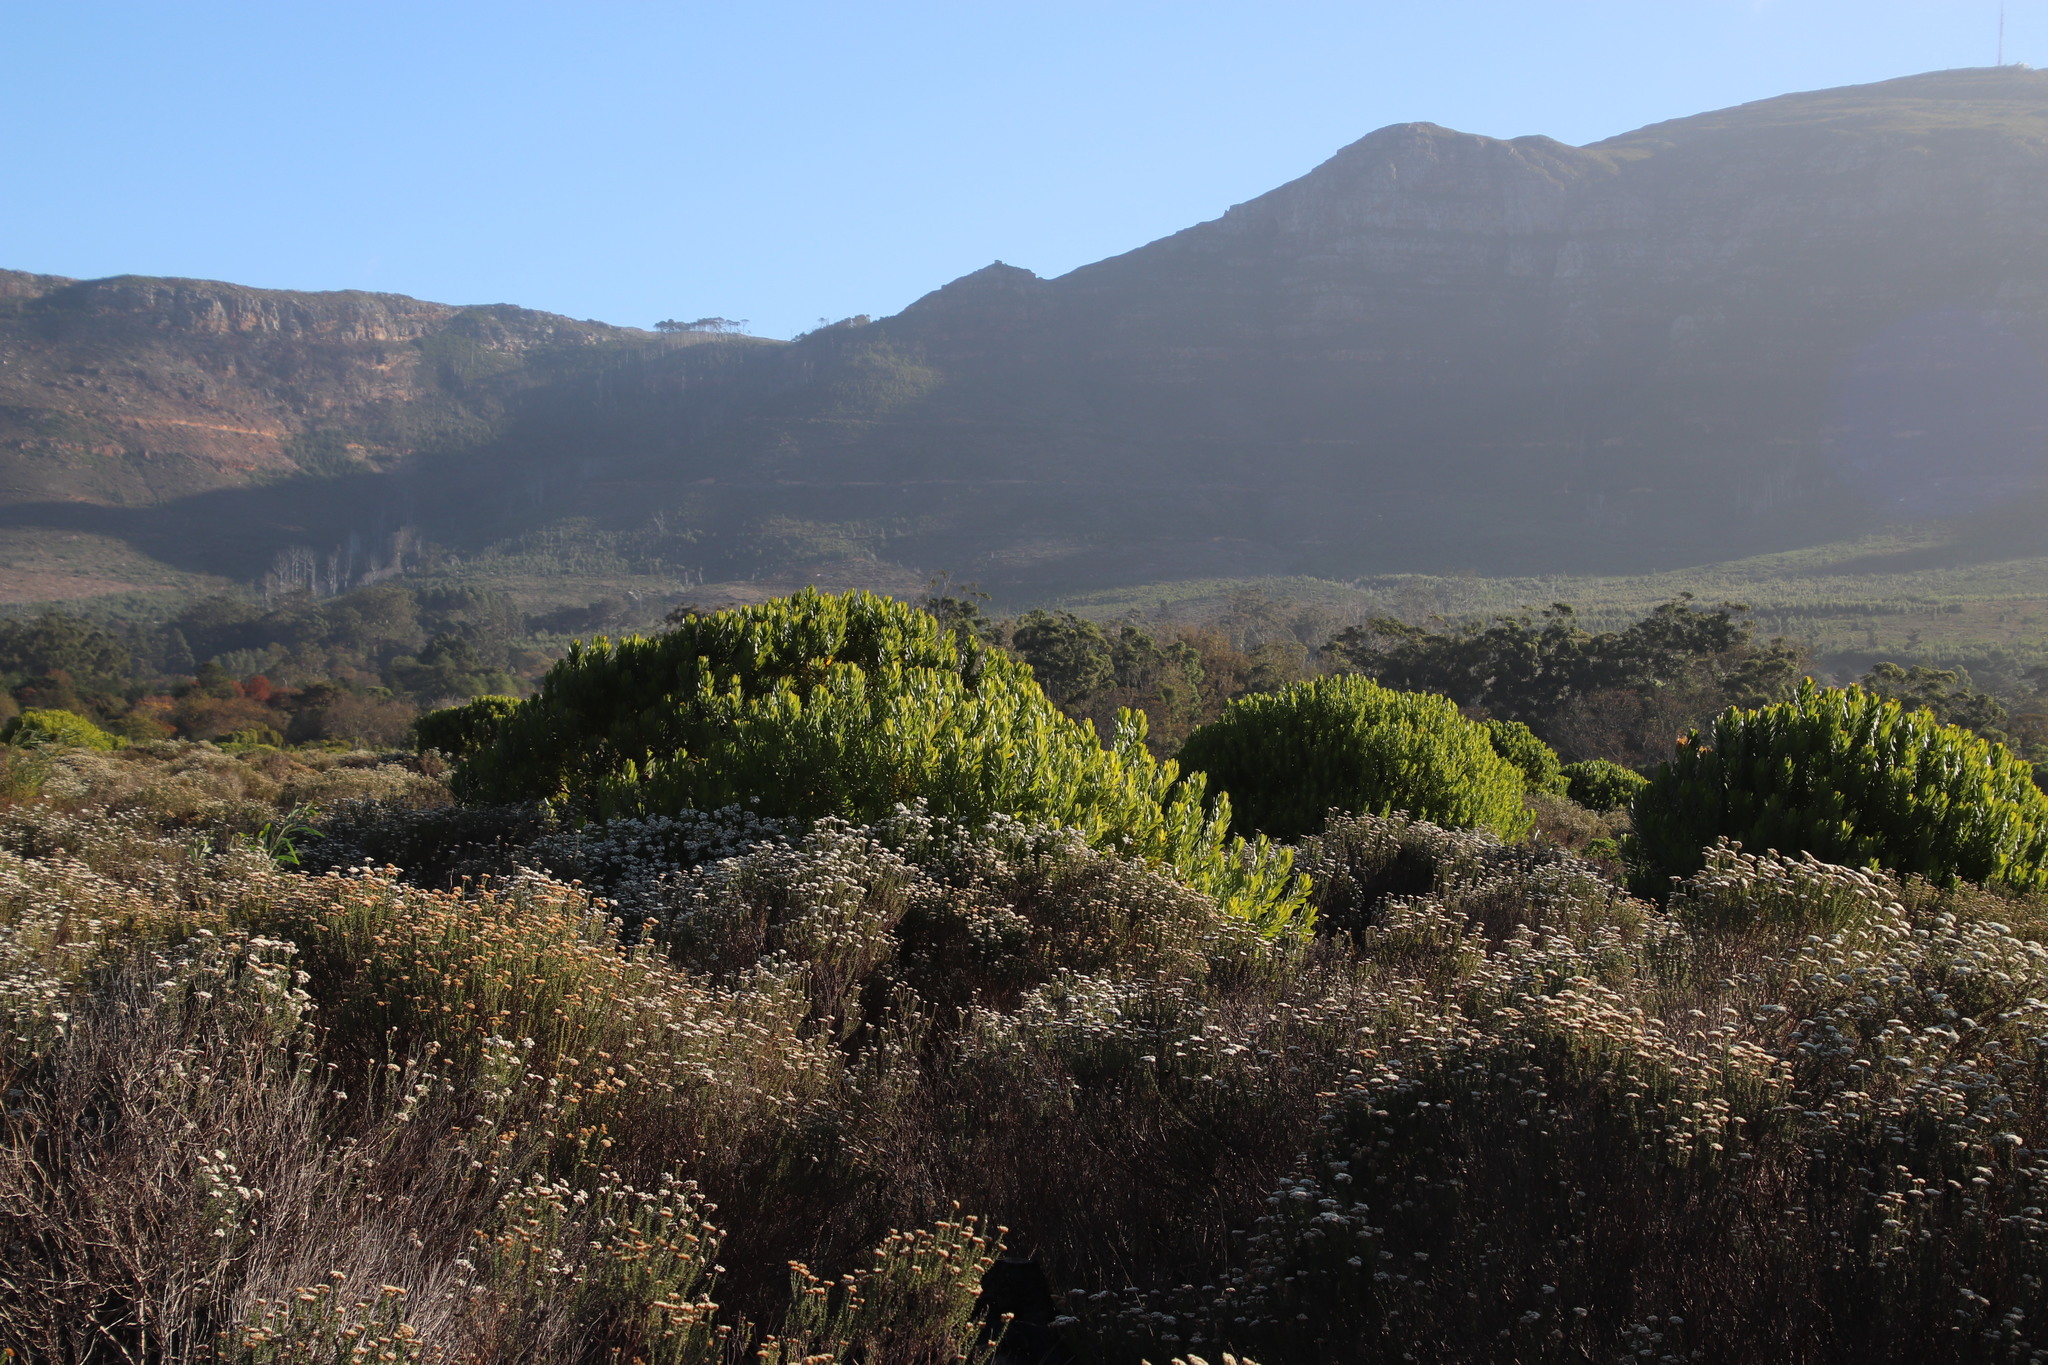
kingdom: Plantae
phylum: Tracheophyta
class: Magnoliopsida
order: Proteales
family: Proteaceae
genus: Leucadendron
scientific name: Leucadendron laureolum
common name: Golden sunshinebush
